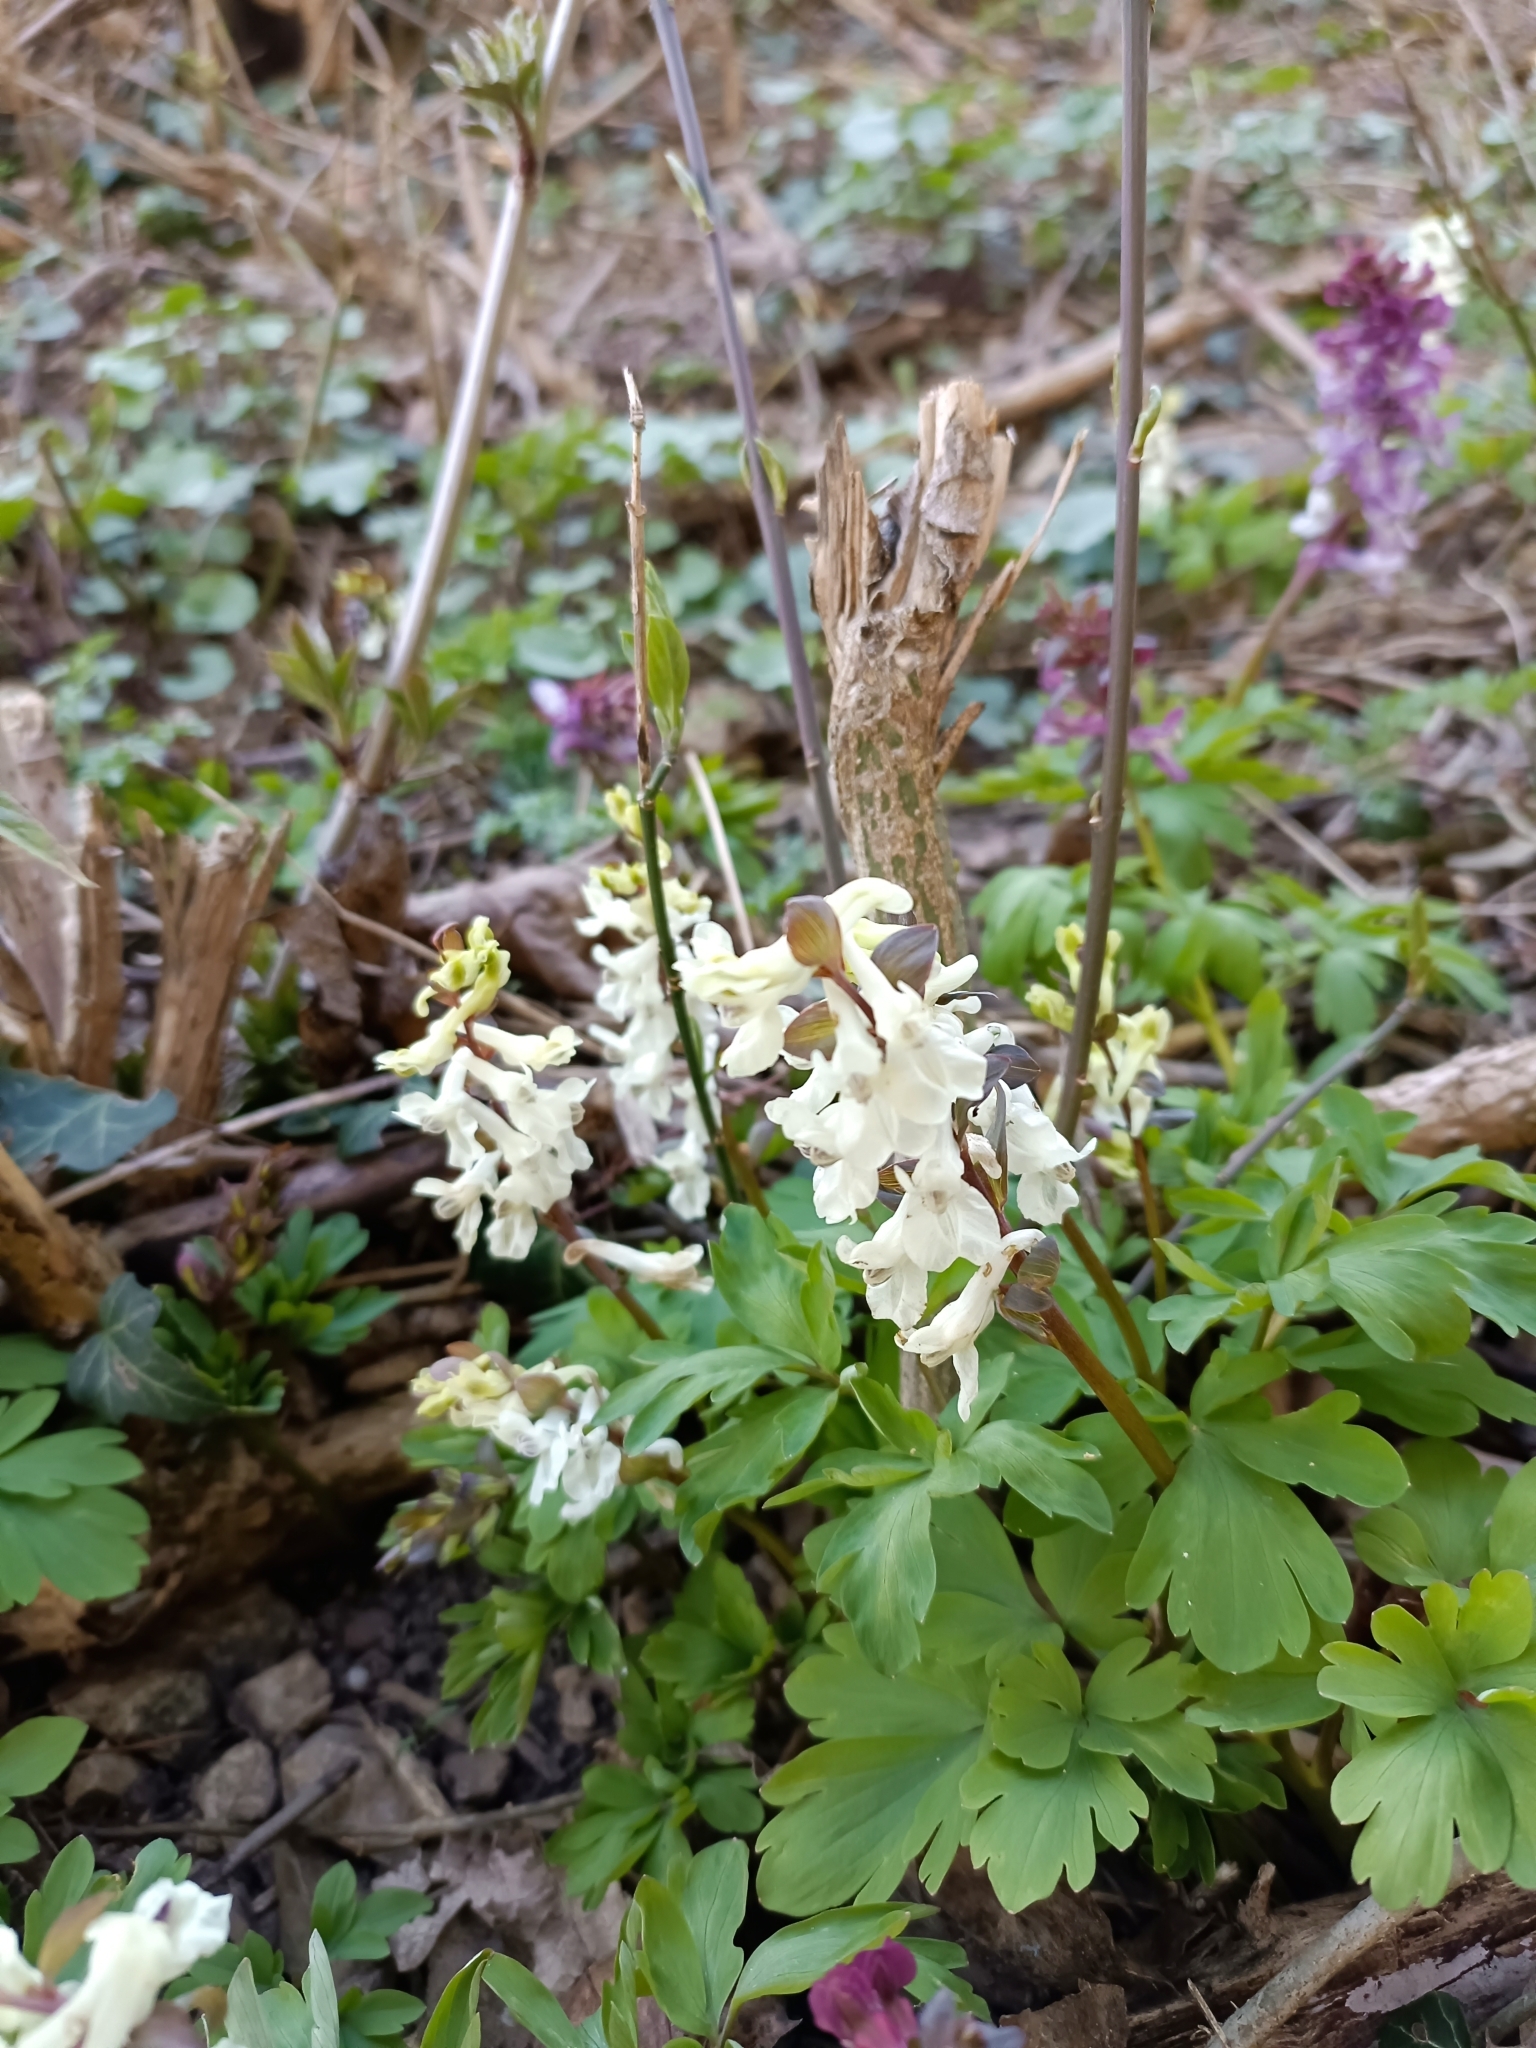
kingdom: Plantae
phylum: Tracheophyta
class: Magnoliopsida
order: Ranunculales
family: Papaveraceae
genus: Corydalis
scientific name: Corydalis cava
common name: Hollowroot
